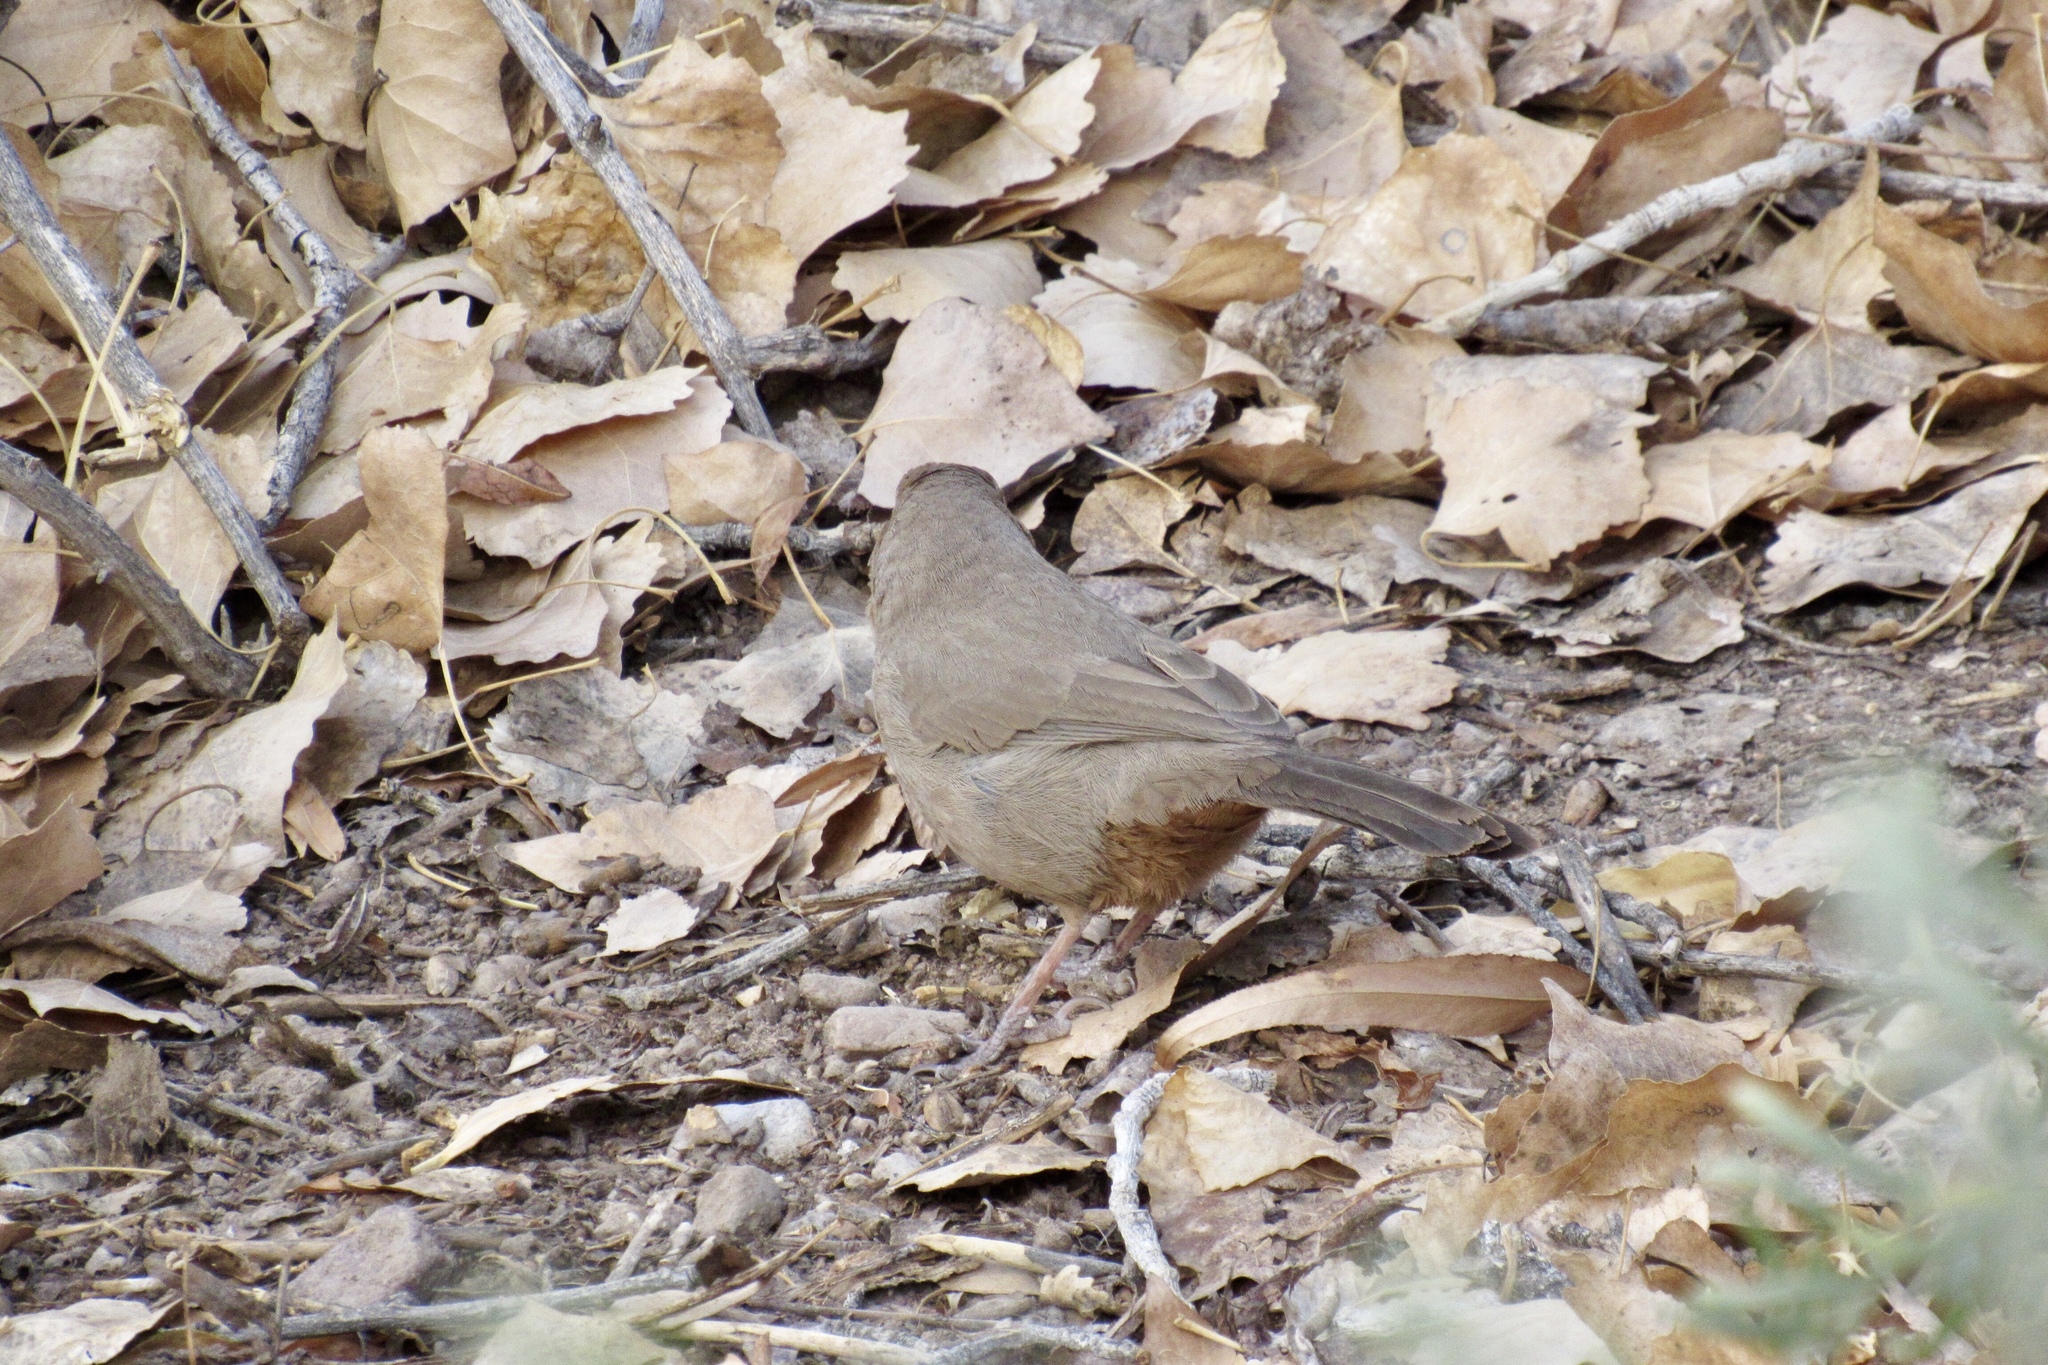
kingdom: Animalia
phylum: Chordata
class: Aves
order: Passeriformes
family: Passerellidae
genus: Melozone
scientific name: Melozone aberti
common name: Abert's towhee
